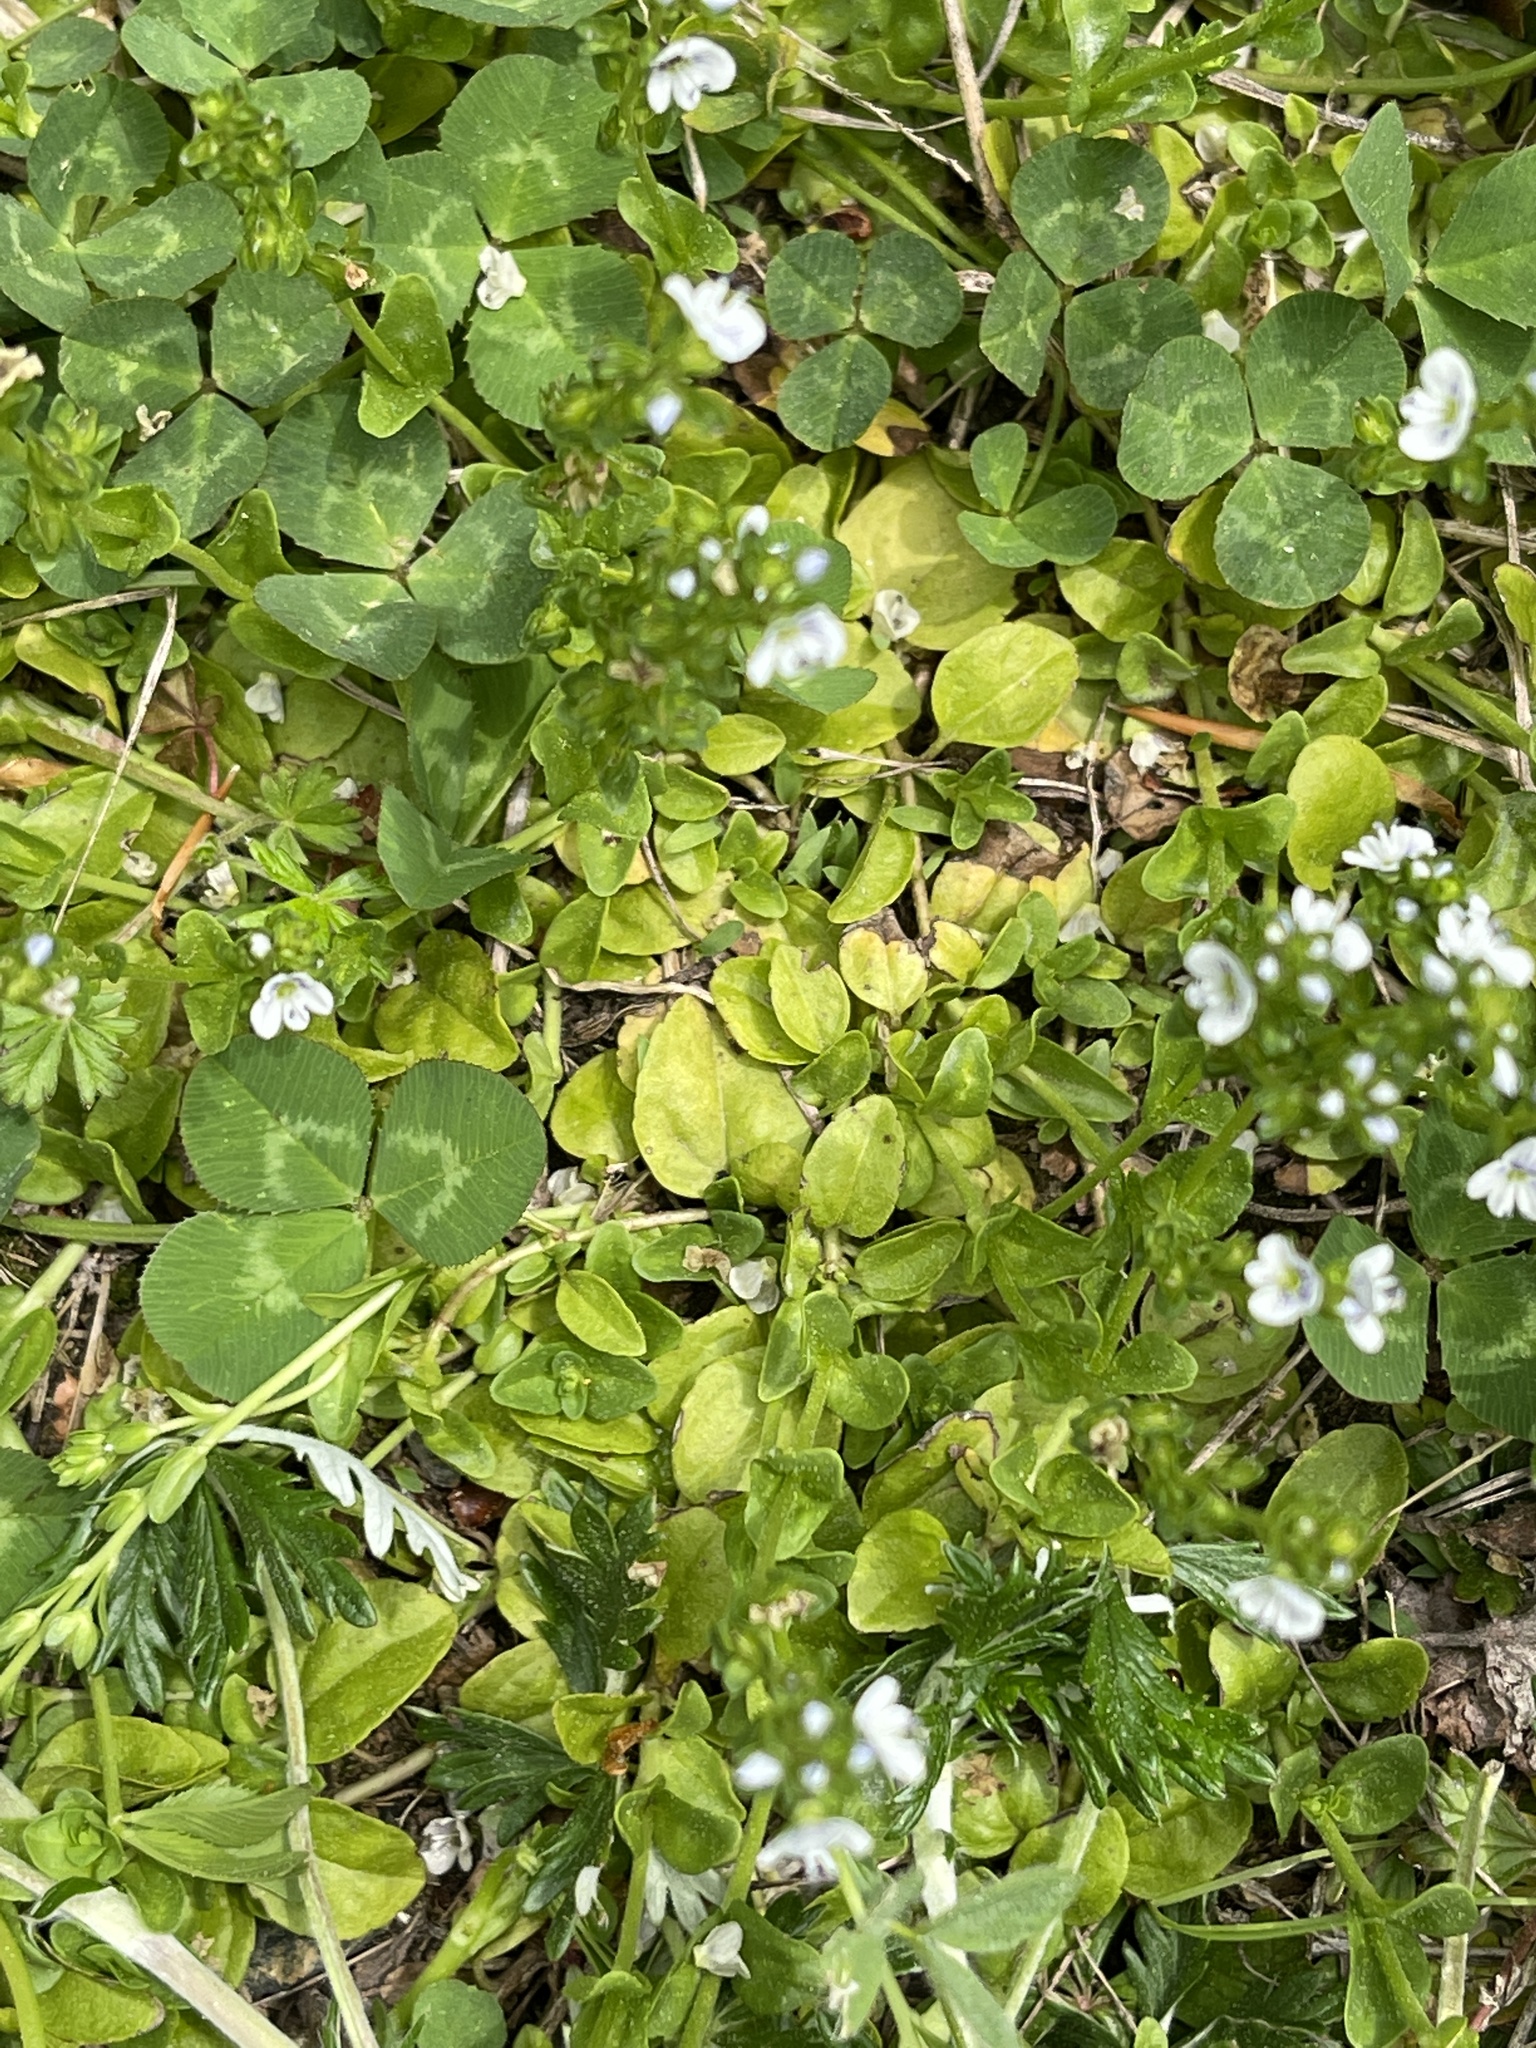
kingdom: Plantae
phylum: Tracheophyta
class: Magnoliopsida
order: Lamiales
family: Plantaginaceae
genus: Veronica
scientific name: Veronica serpyllifolia
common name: Thyme-leaved speedwell
